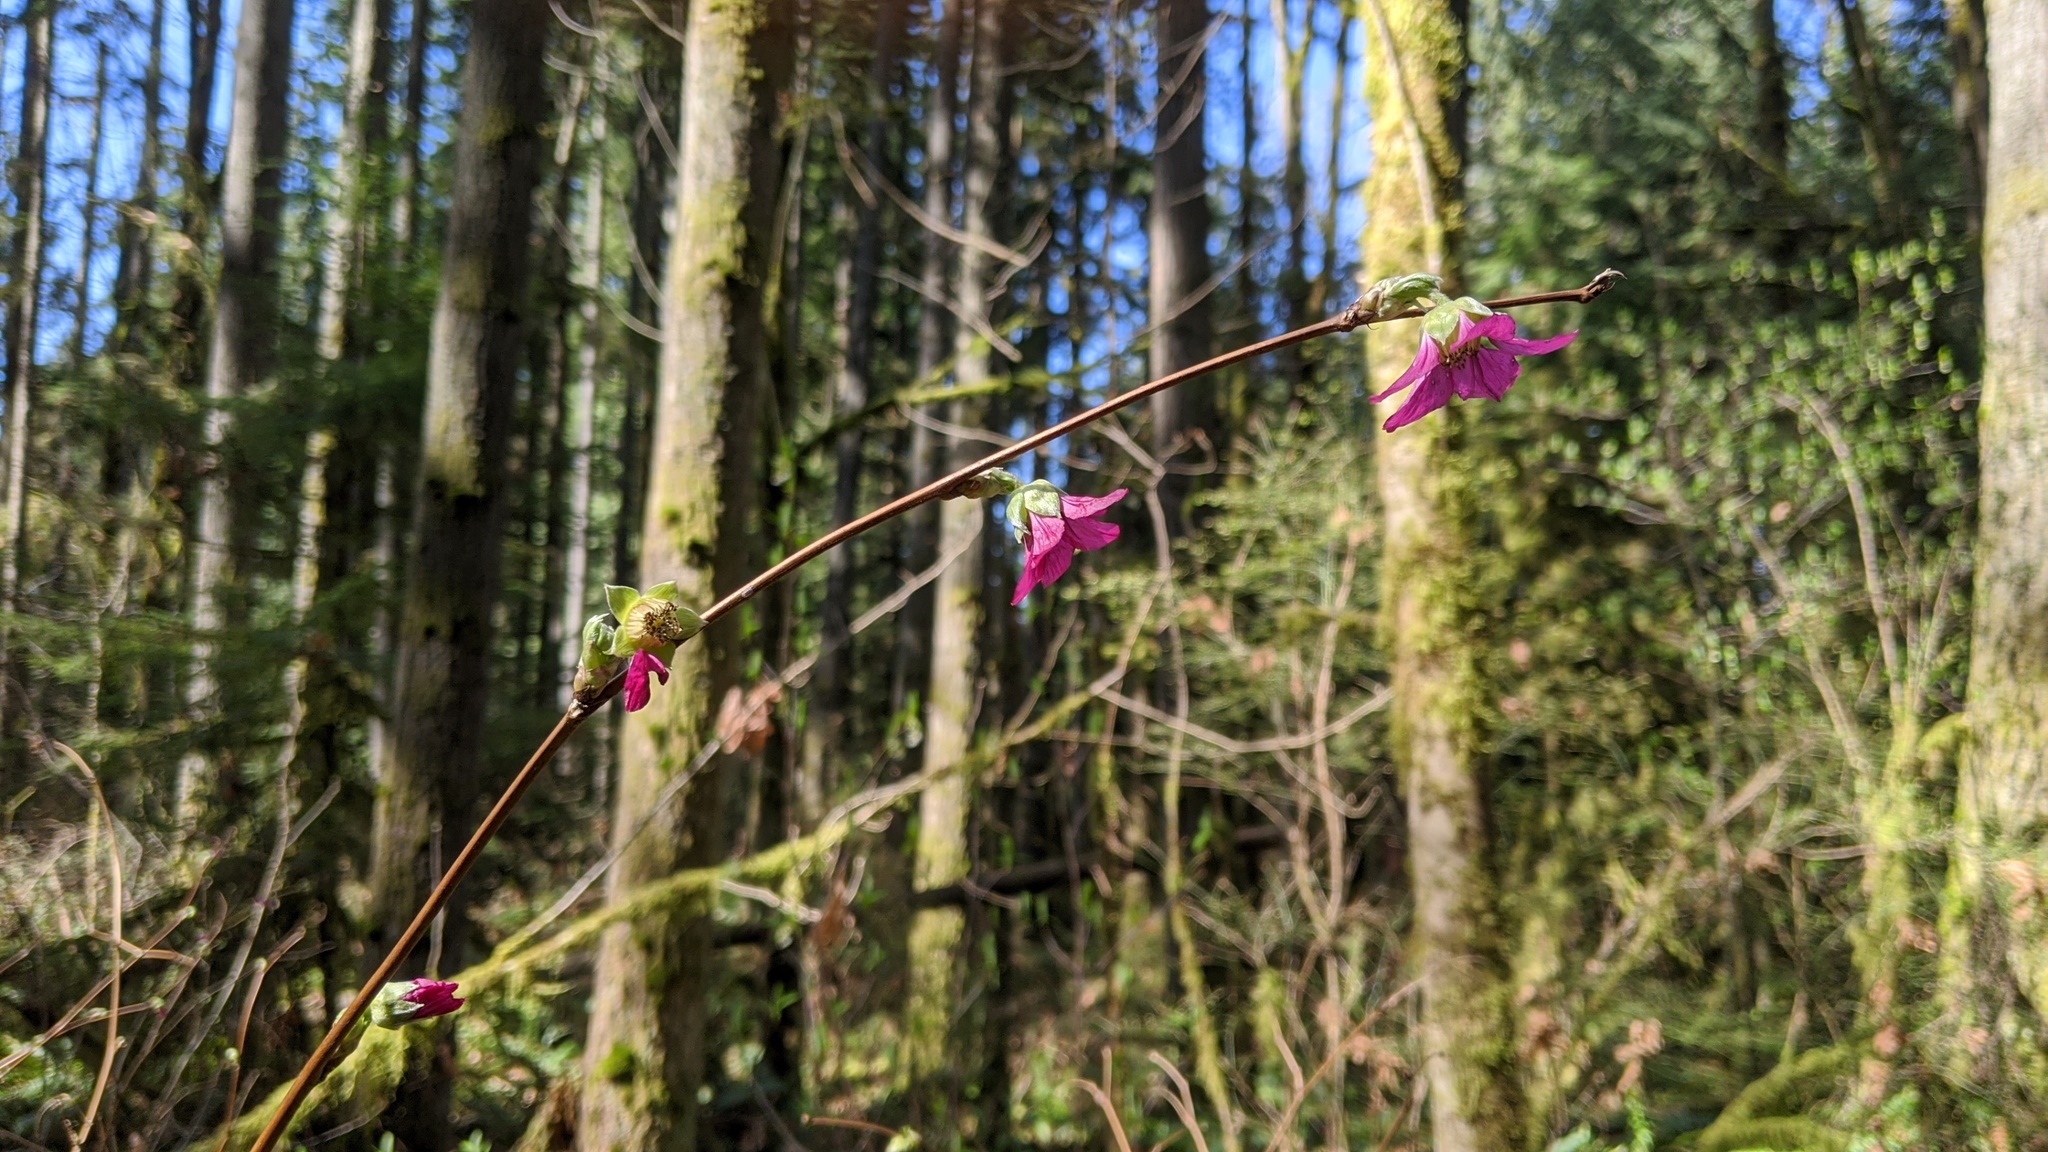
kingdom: Plantae
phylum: Tracheophyta
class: Magnoliopsida
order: Rosales
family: Rosaceae
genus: Rubus
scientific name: Rubus spectabilis
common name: Salmonberry
